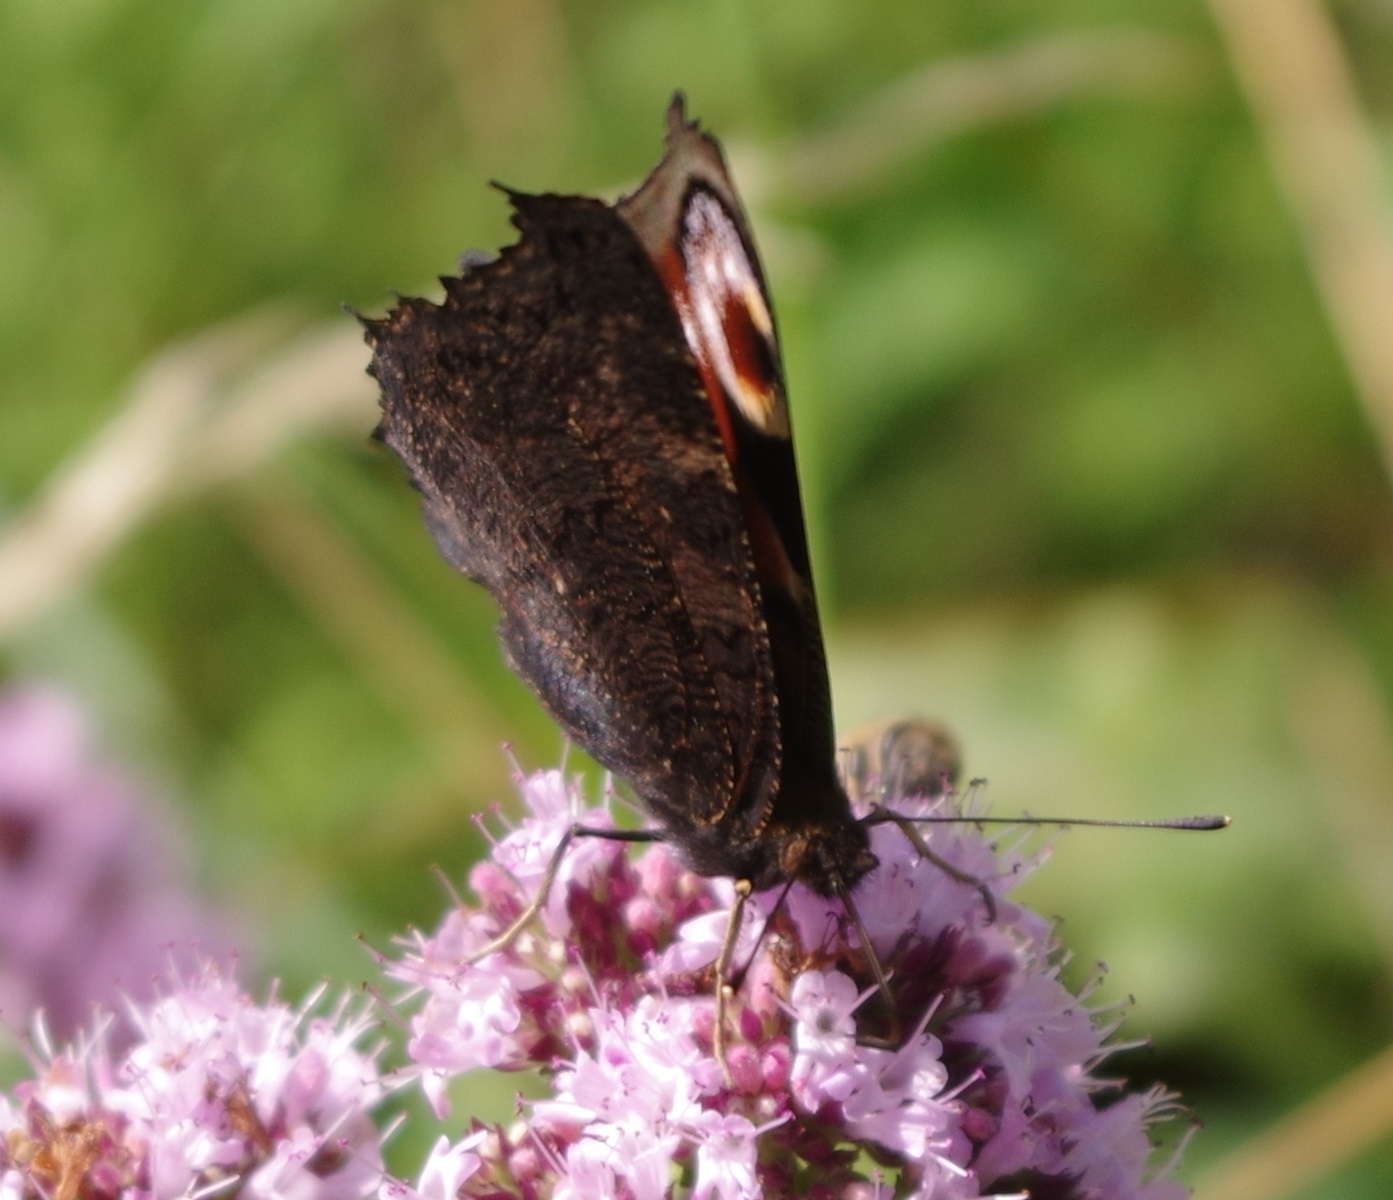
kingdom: Animalia
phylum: Arthropoda
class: Insecta
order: Lepidoptera
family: Nymphalidae
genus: Aglais
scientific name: Aglais io
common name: Peacock
